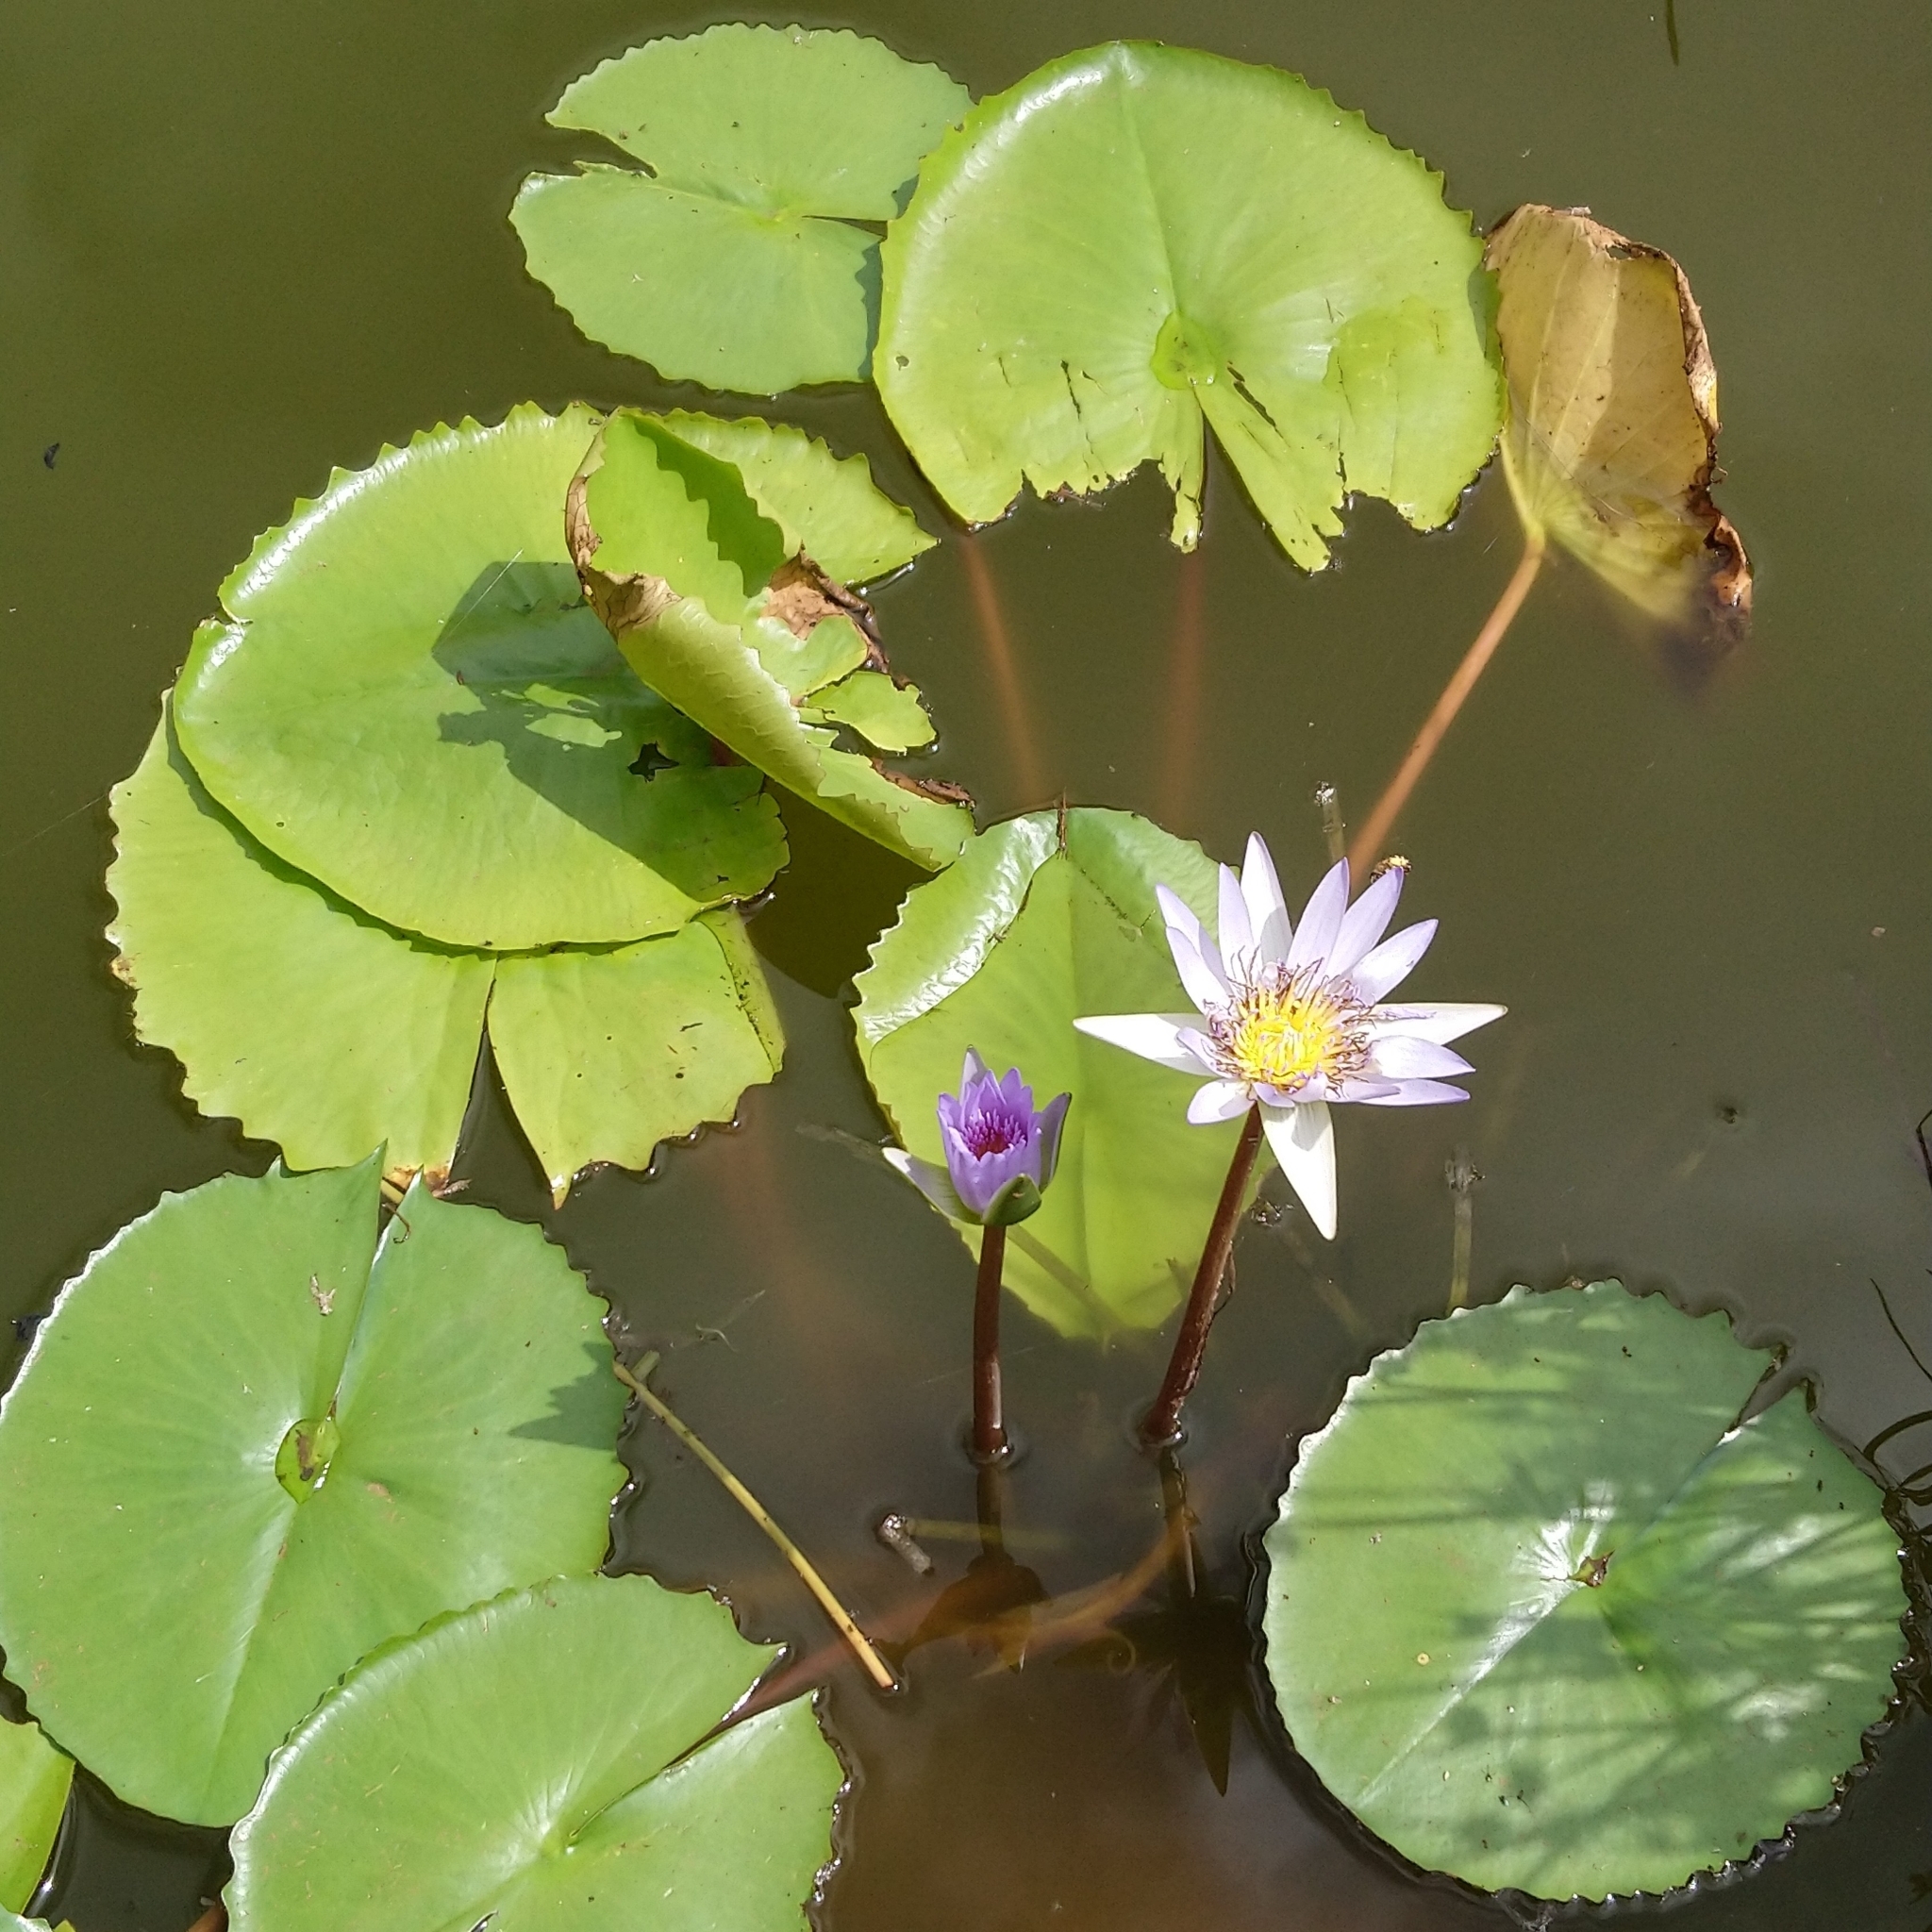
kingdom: Plantae
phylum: Tracheophyta
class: Magnoliopsida
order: Nymphaeales
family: Nymphaeaceae
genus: Nymphaea
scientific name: Nymphaea nouchali
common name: Blue lotus
